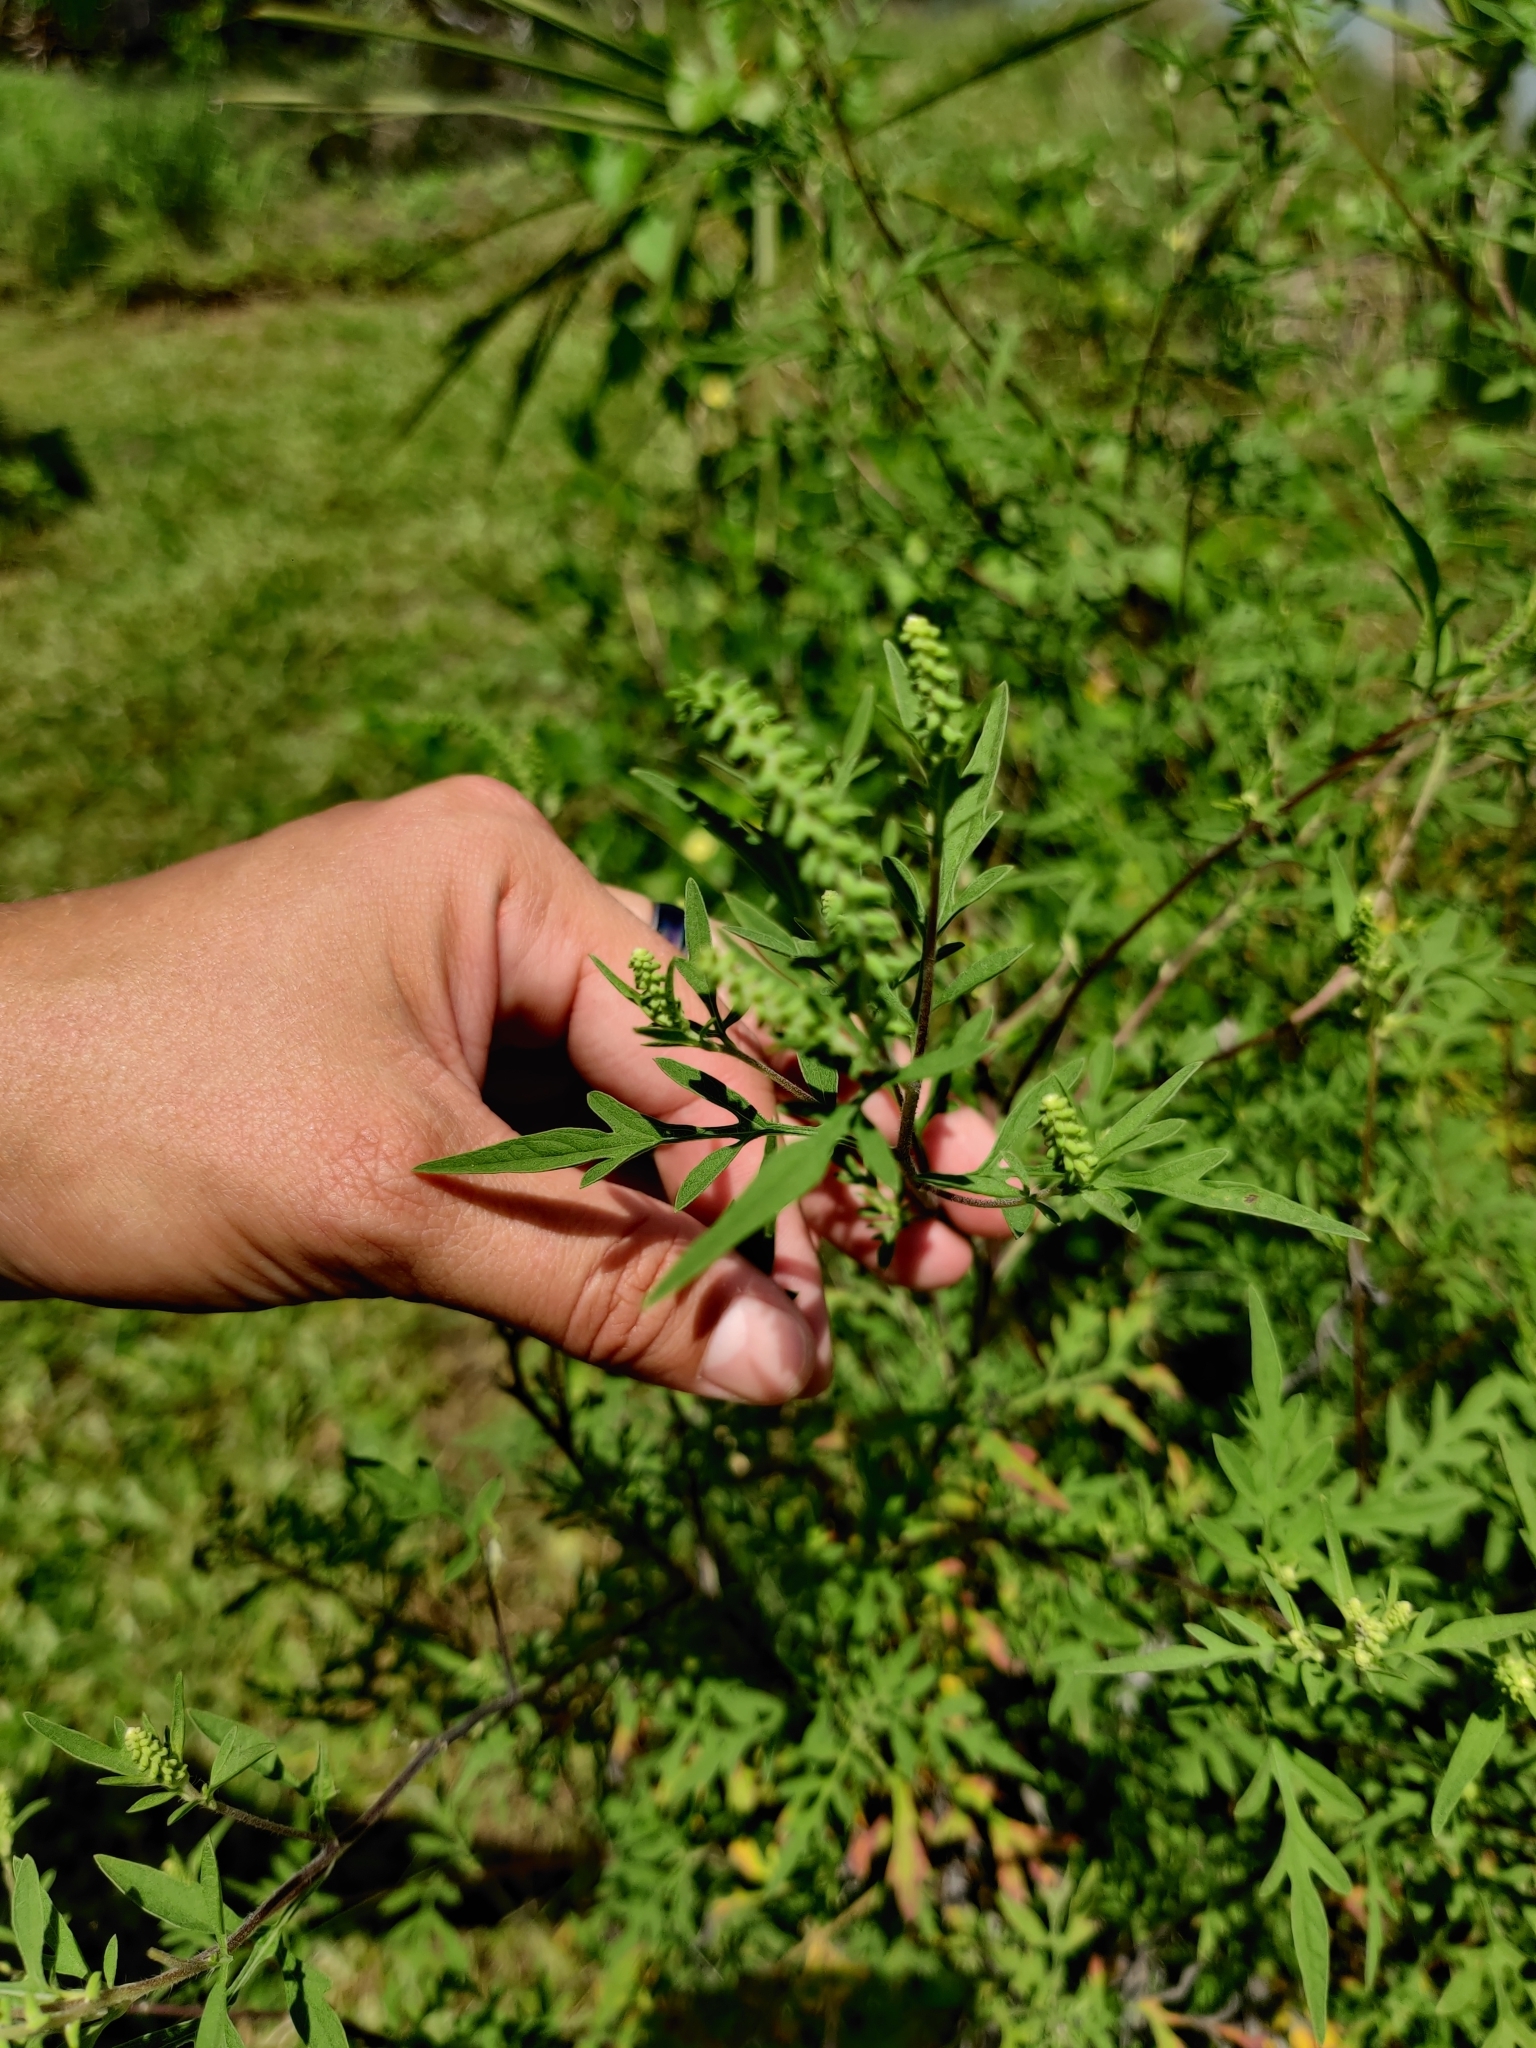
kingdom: Plantae
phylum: Tracheophyta
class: Magnoliopsida
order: Asterales
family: Asteraceae
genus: Ambrosia
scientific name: Ambrosia artemisiifolia
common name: Annual ragweed
